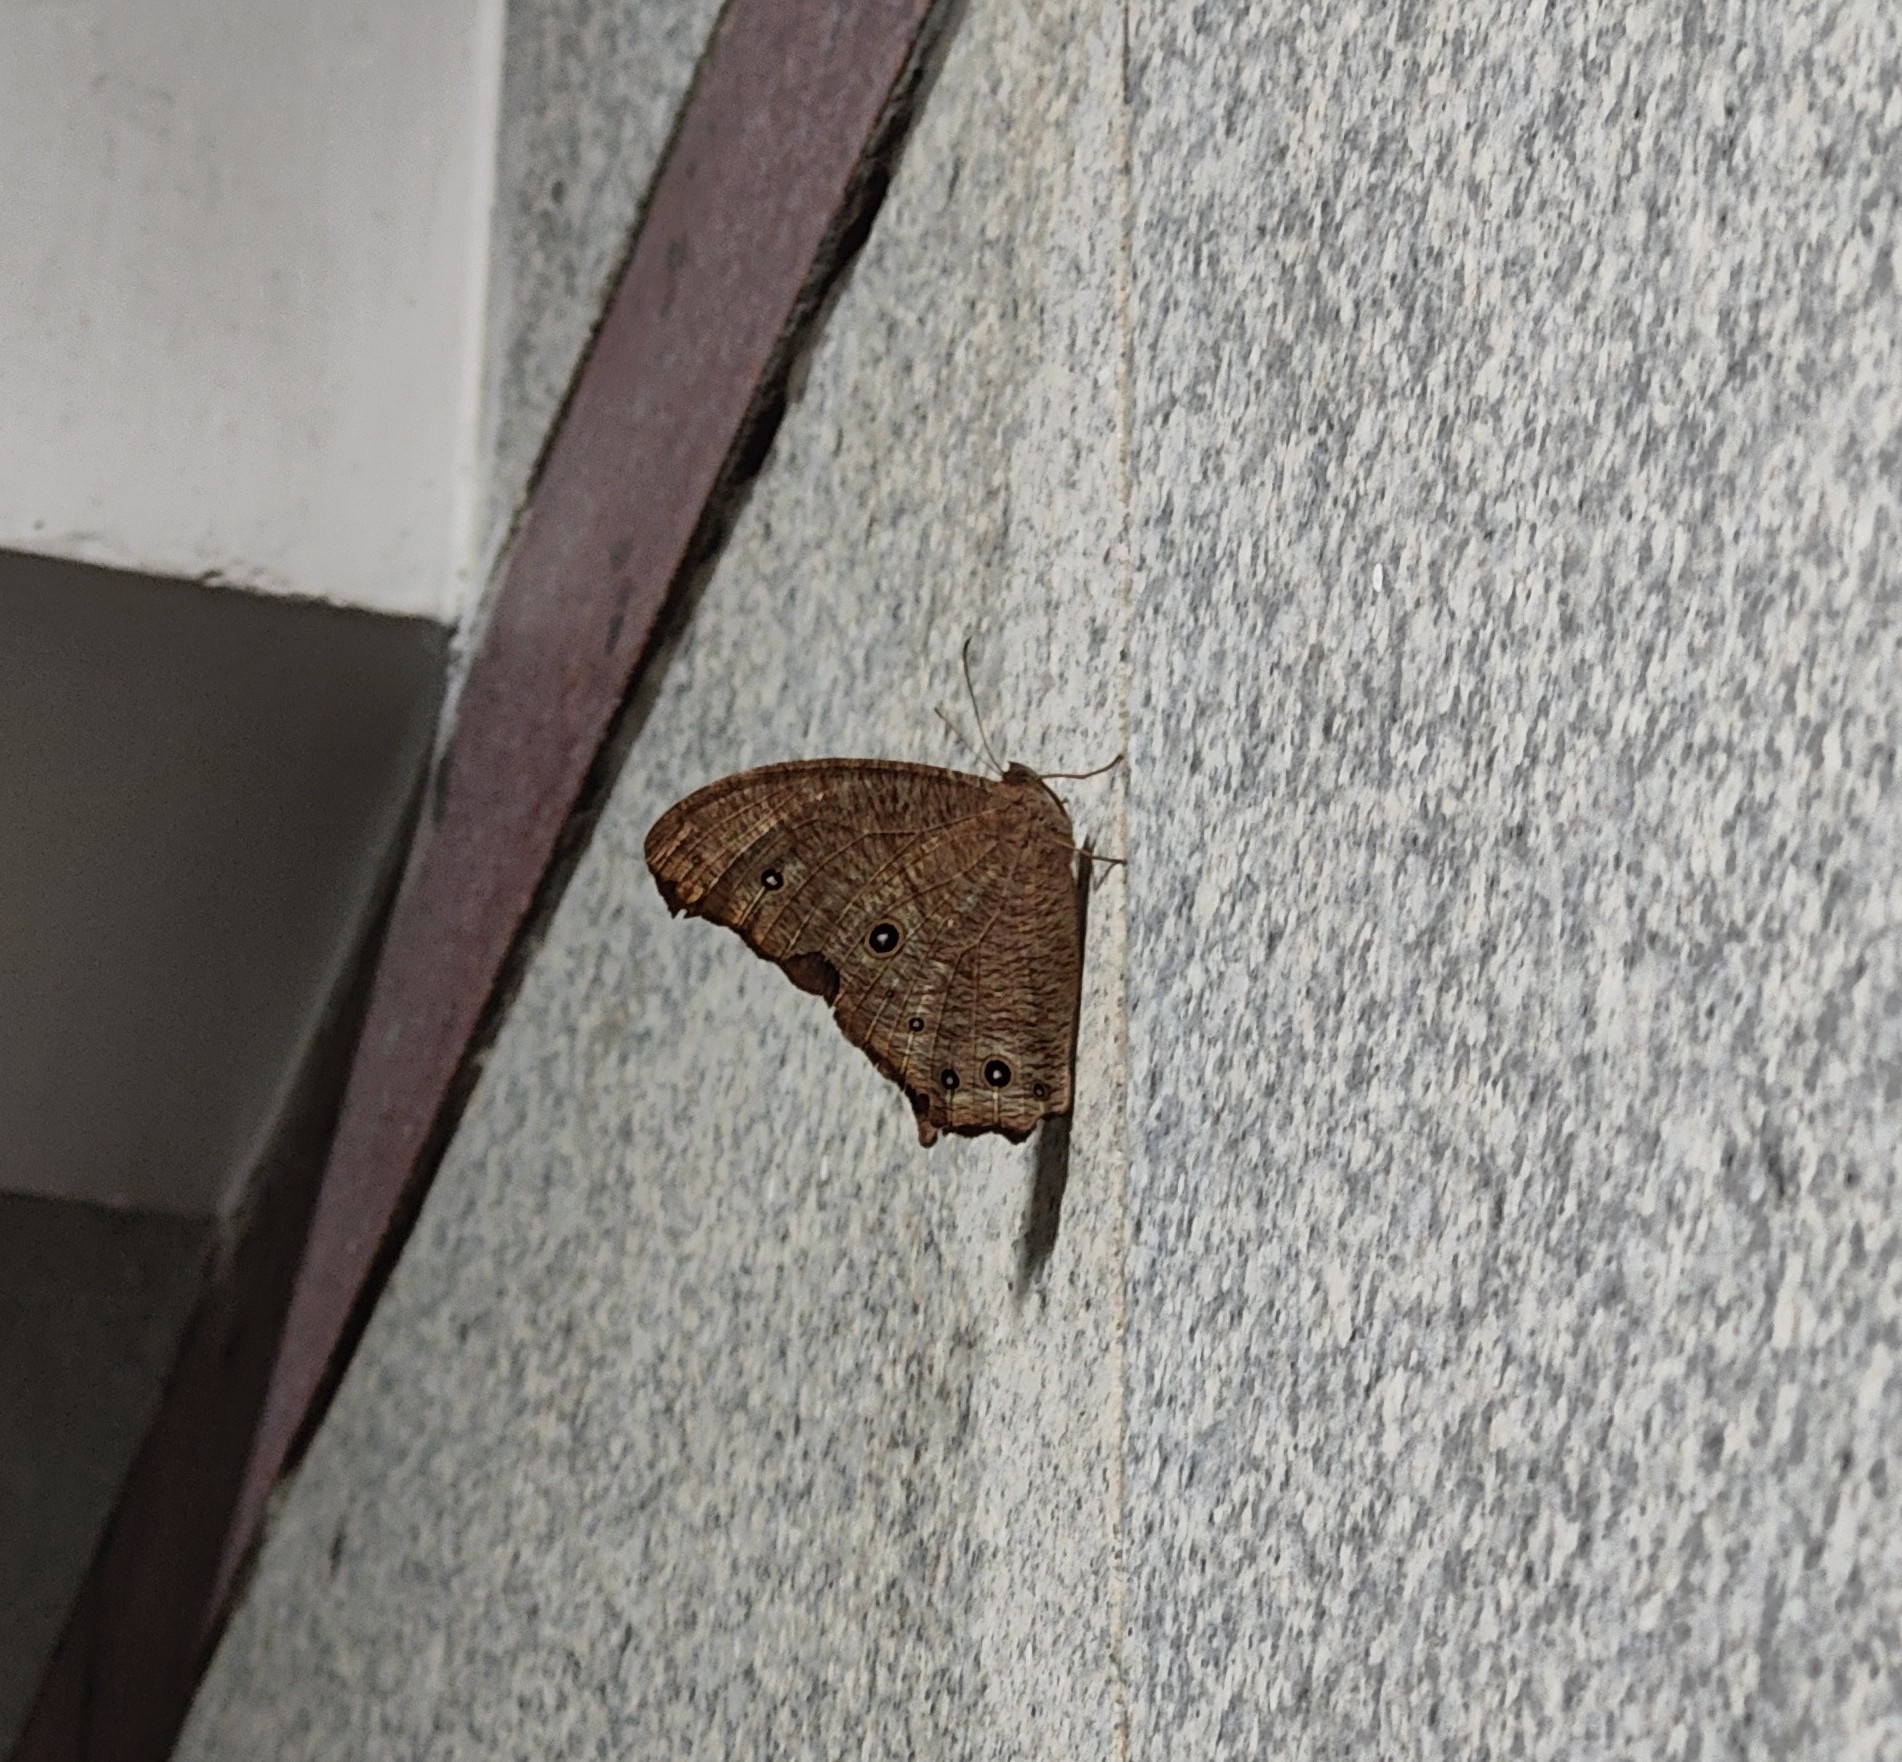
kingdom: Animalia
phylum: Arthropoda
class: Insecta
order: Lepidoptera
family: Nymphalidae
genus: Melanitis
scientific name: Melanitis leda
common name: Twilight brown
